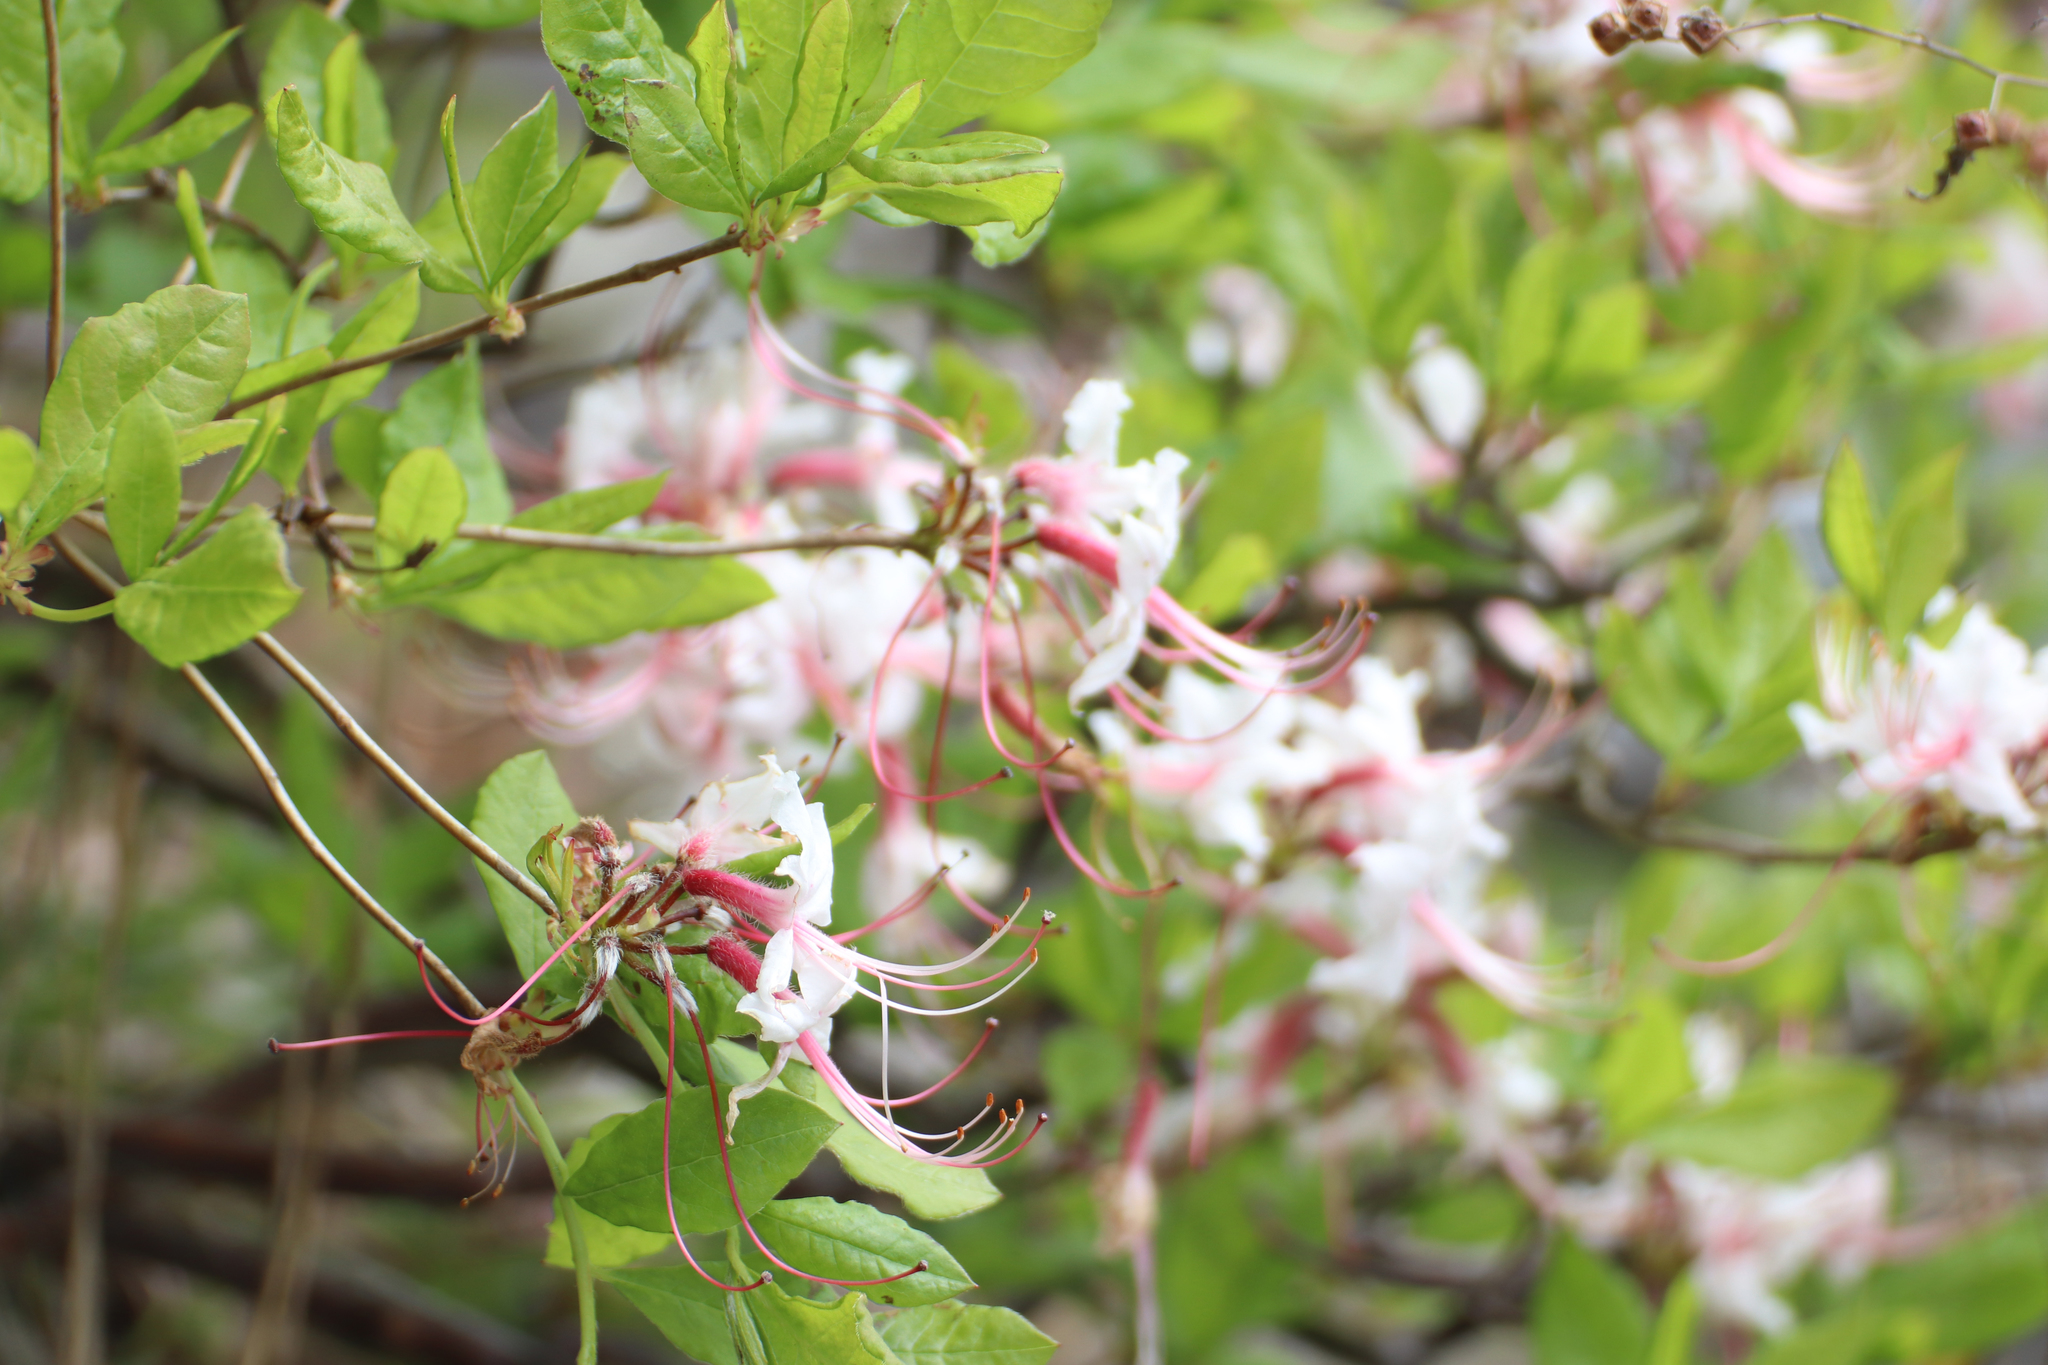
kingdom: Plantae
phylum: Tracheophyta
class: Magnoliopsida
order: Ericales
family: Ericaceae
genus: Rhododendron
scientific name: Rhododendron periclymenoides
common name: Election-pink
